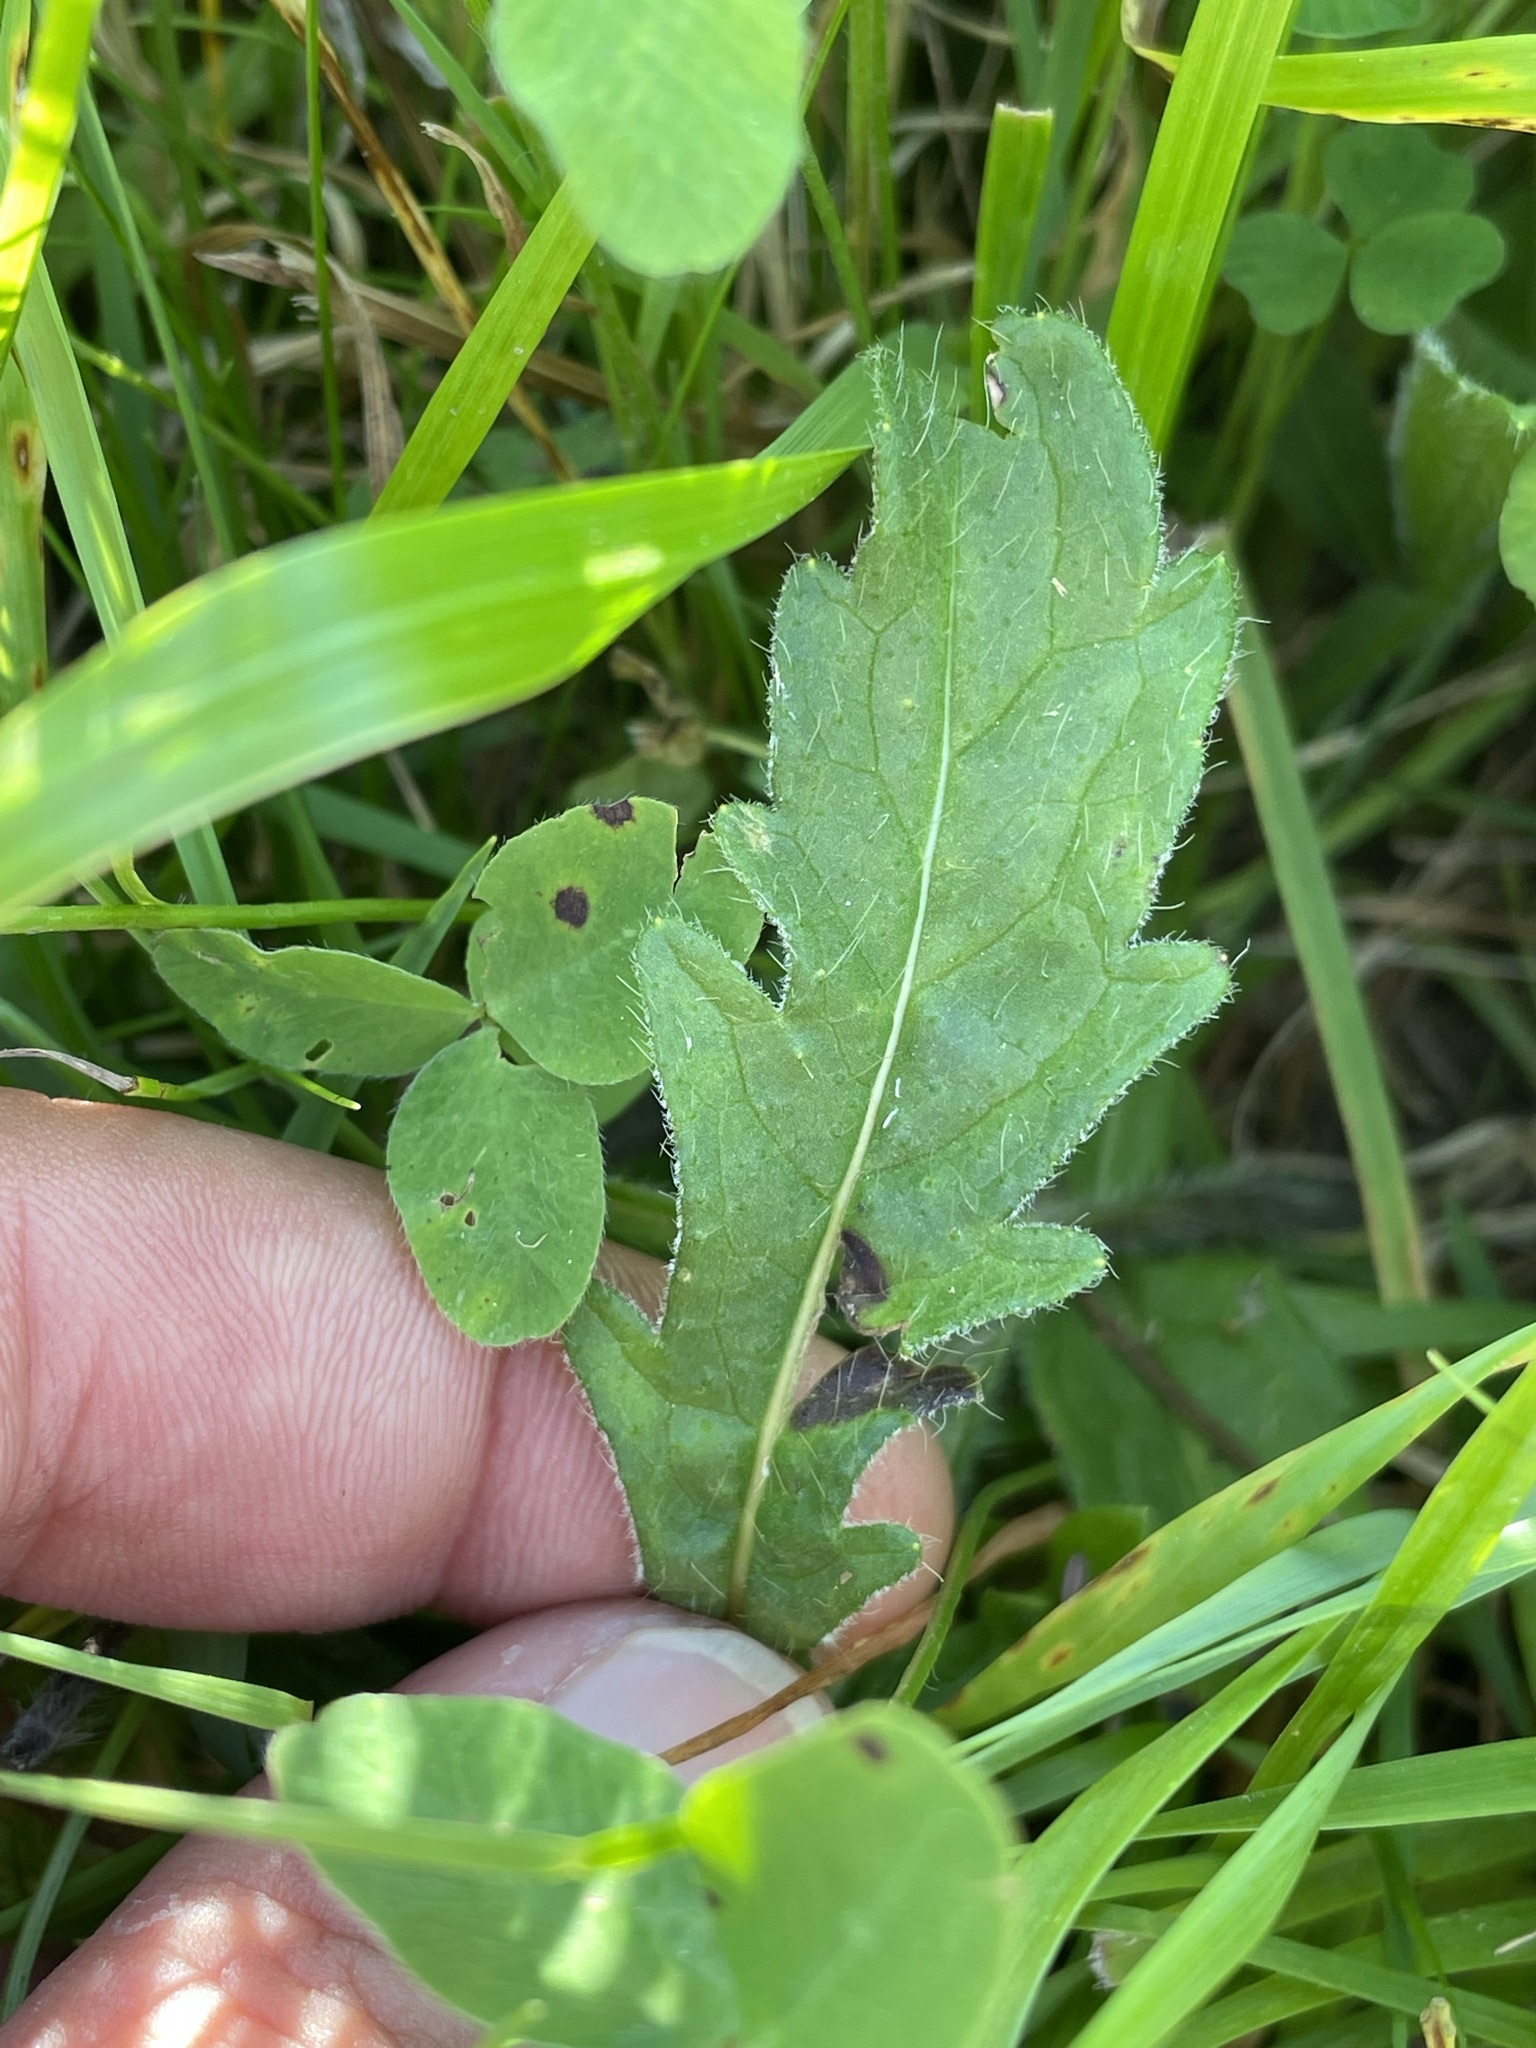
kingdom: Plantae
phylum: Tracheophyta
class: Magnoliopsida
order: Dipsacales
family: Caprifoliaceae
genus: Knautia
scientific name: Knautia arvensis
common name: Field scabiosa
